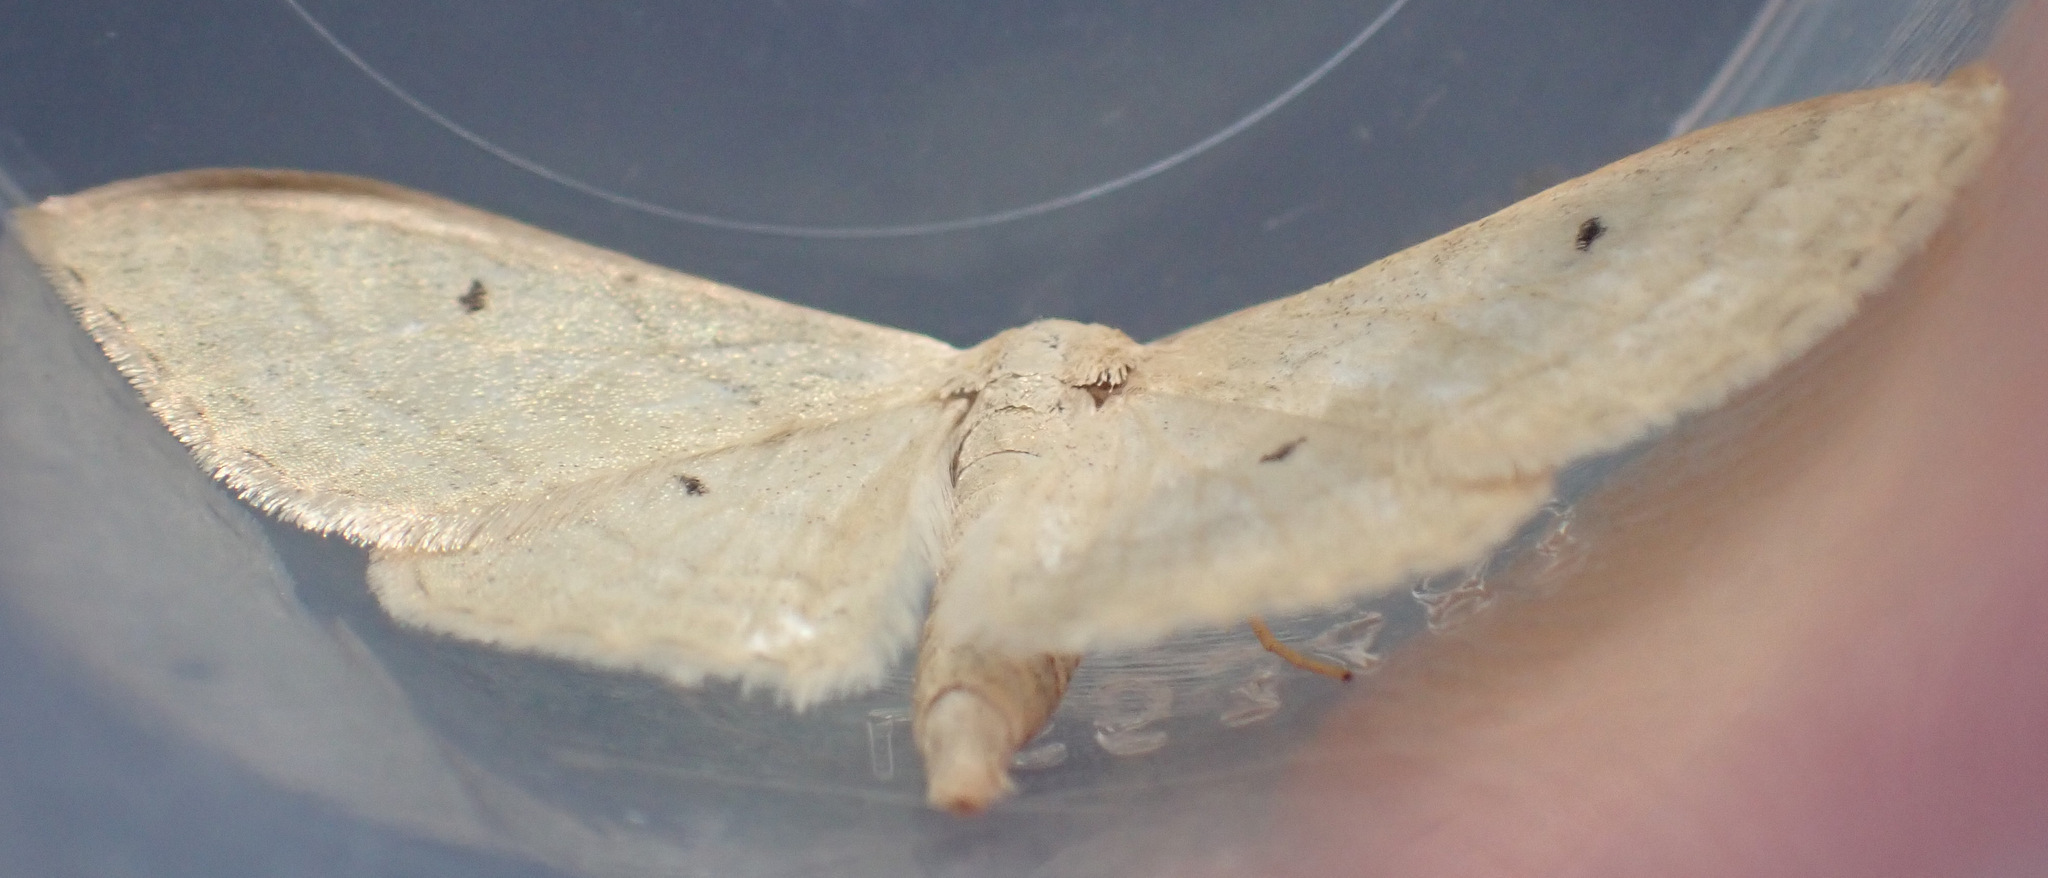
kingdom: Animalia
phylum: Arthropoda
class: Insecta
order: Lepidoptera
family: Geometridae
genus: Idaea
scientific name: Idaea straminata
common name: Plain wave
